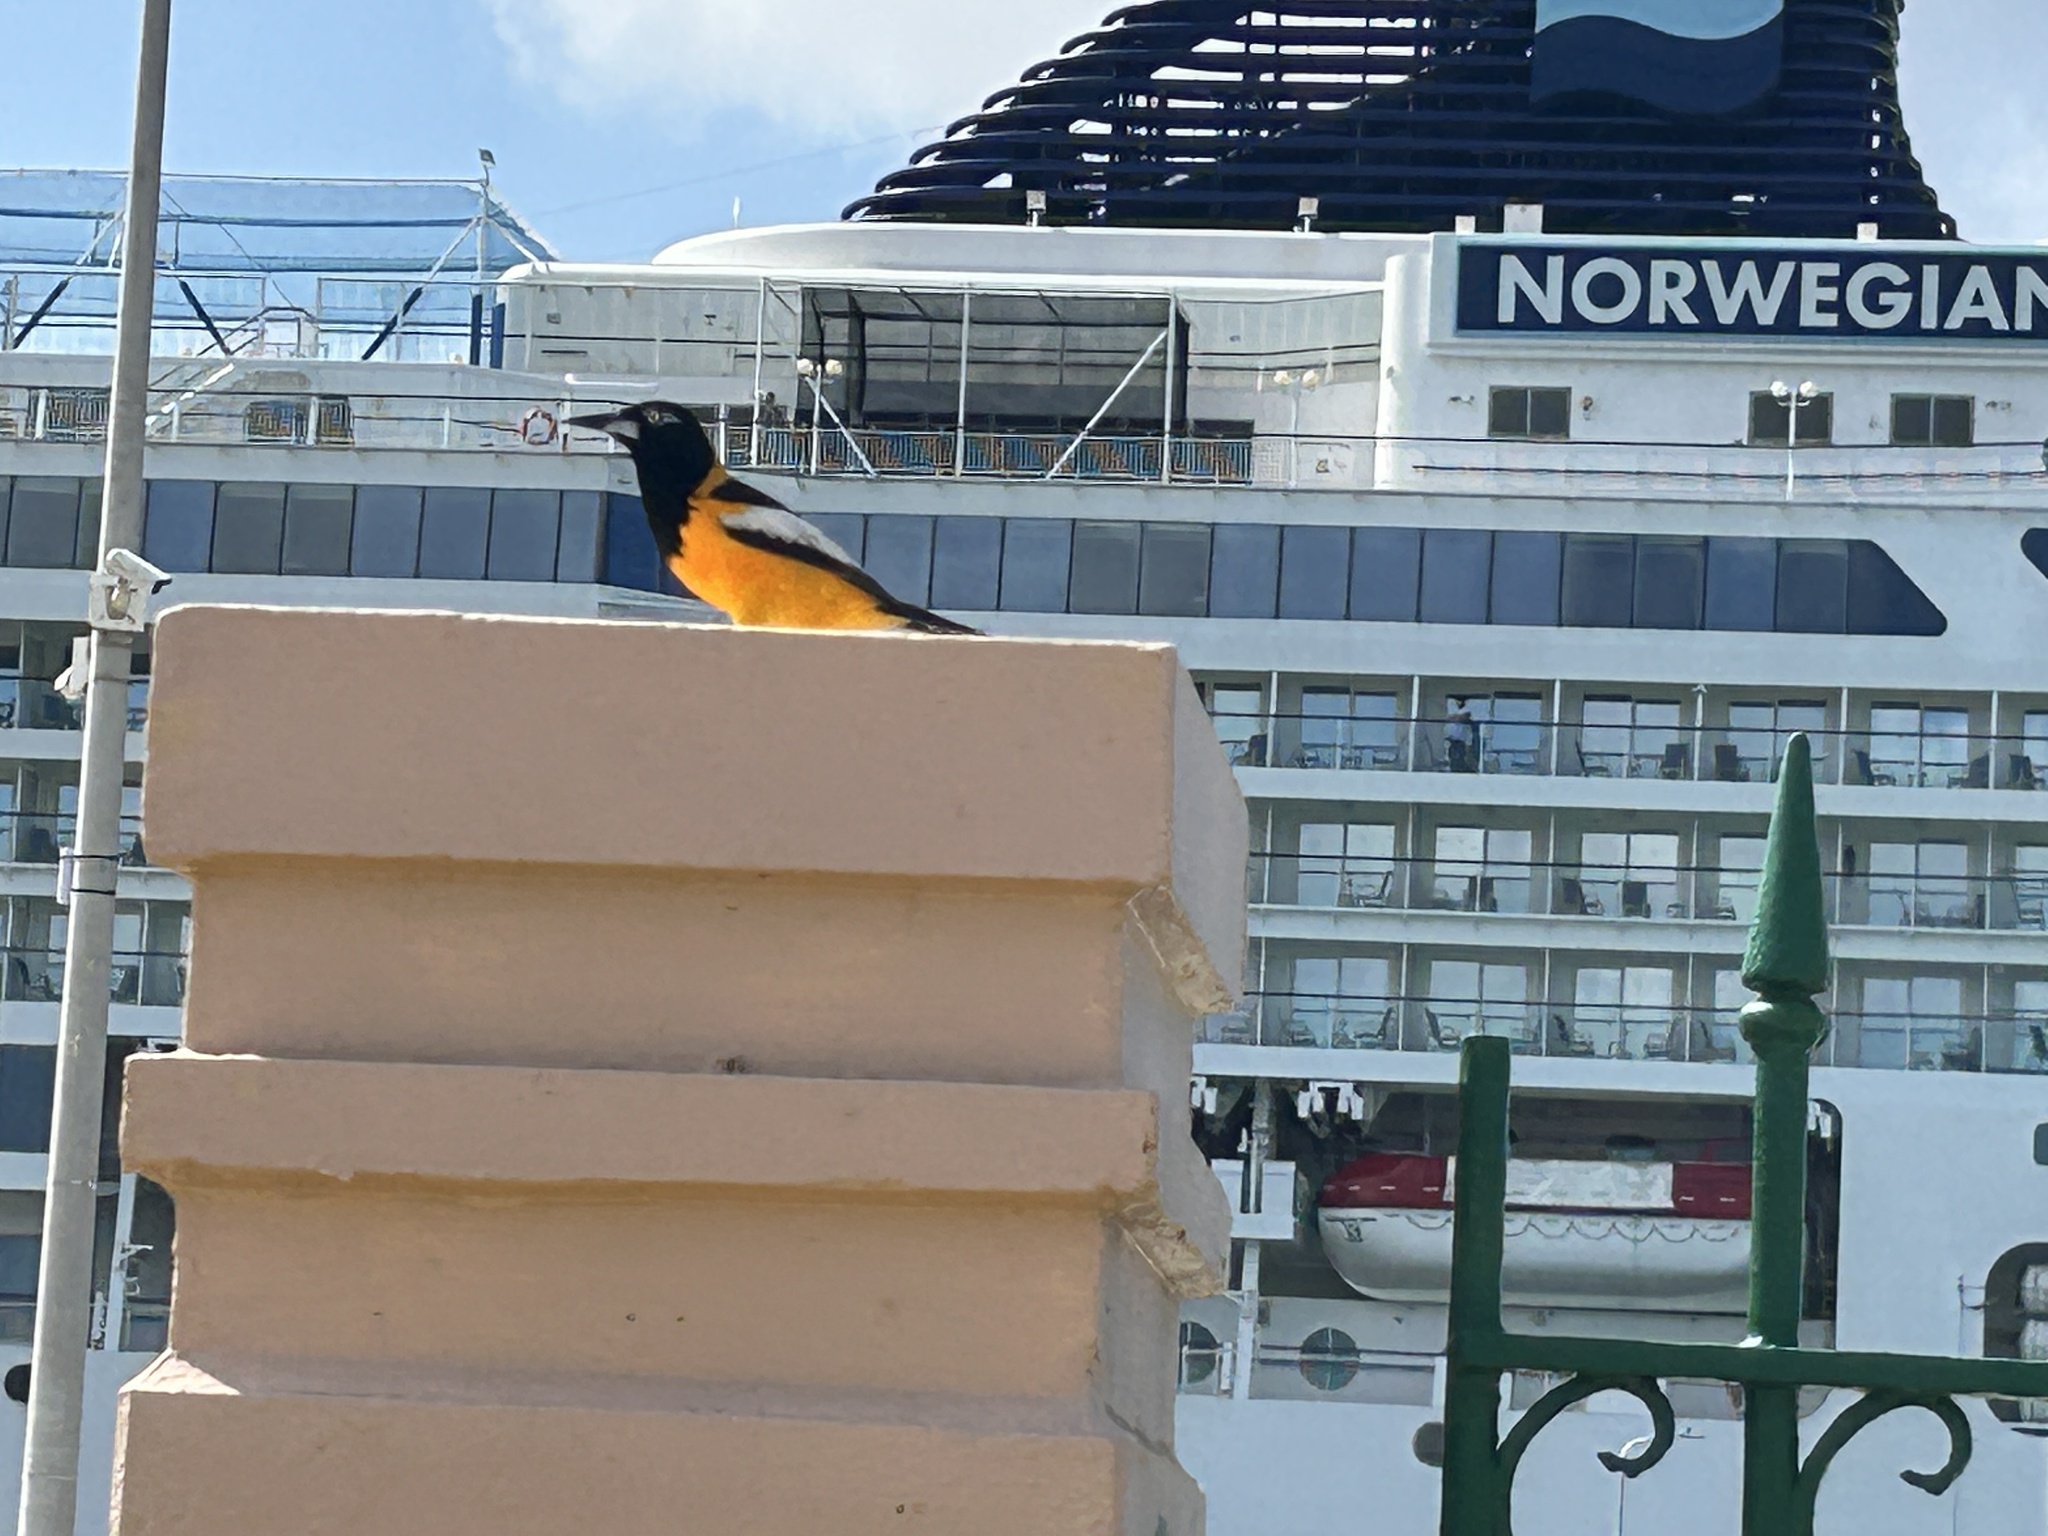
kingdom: Animalia
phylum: Chordata
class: Aves
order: Passeriformes
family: Icteridae
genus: Icterus
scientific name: Icterus icterus
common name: Venezuelan troupial
